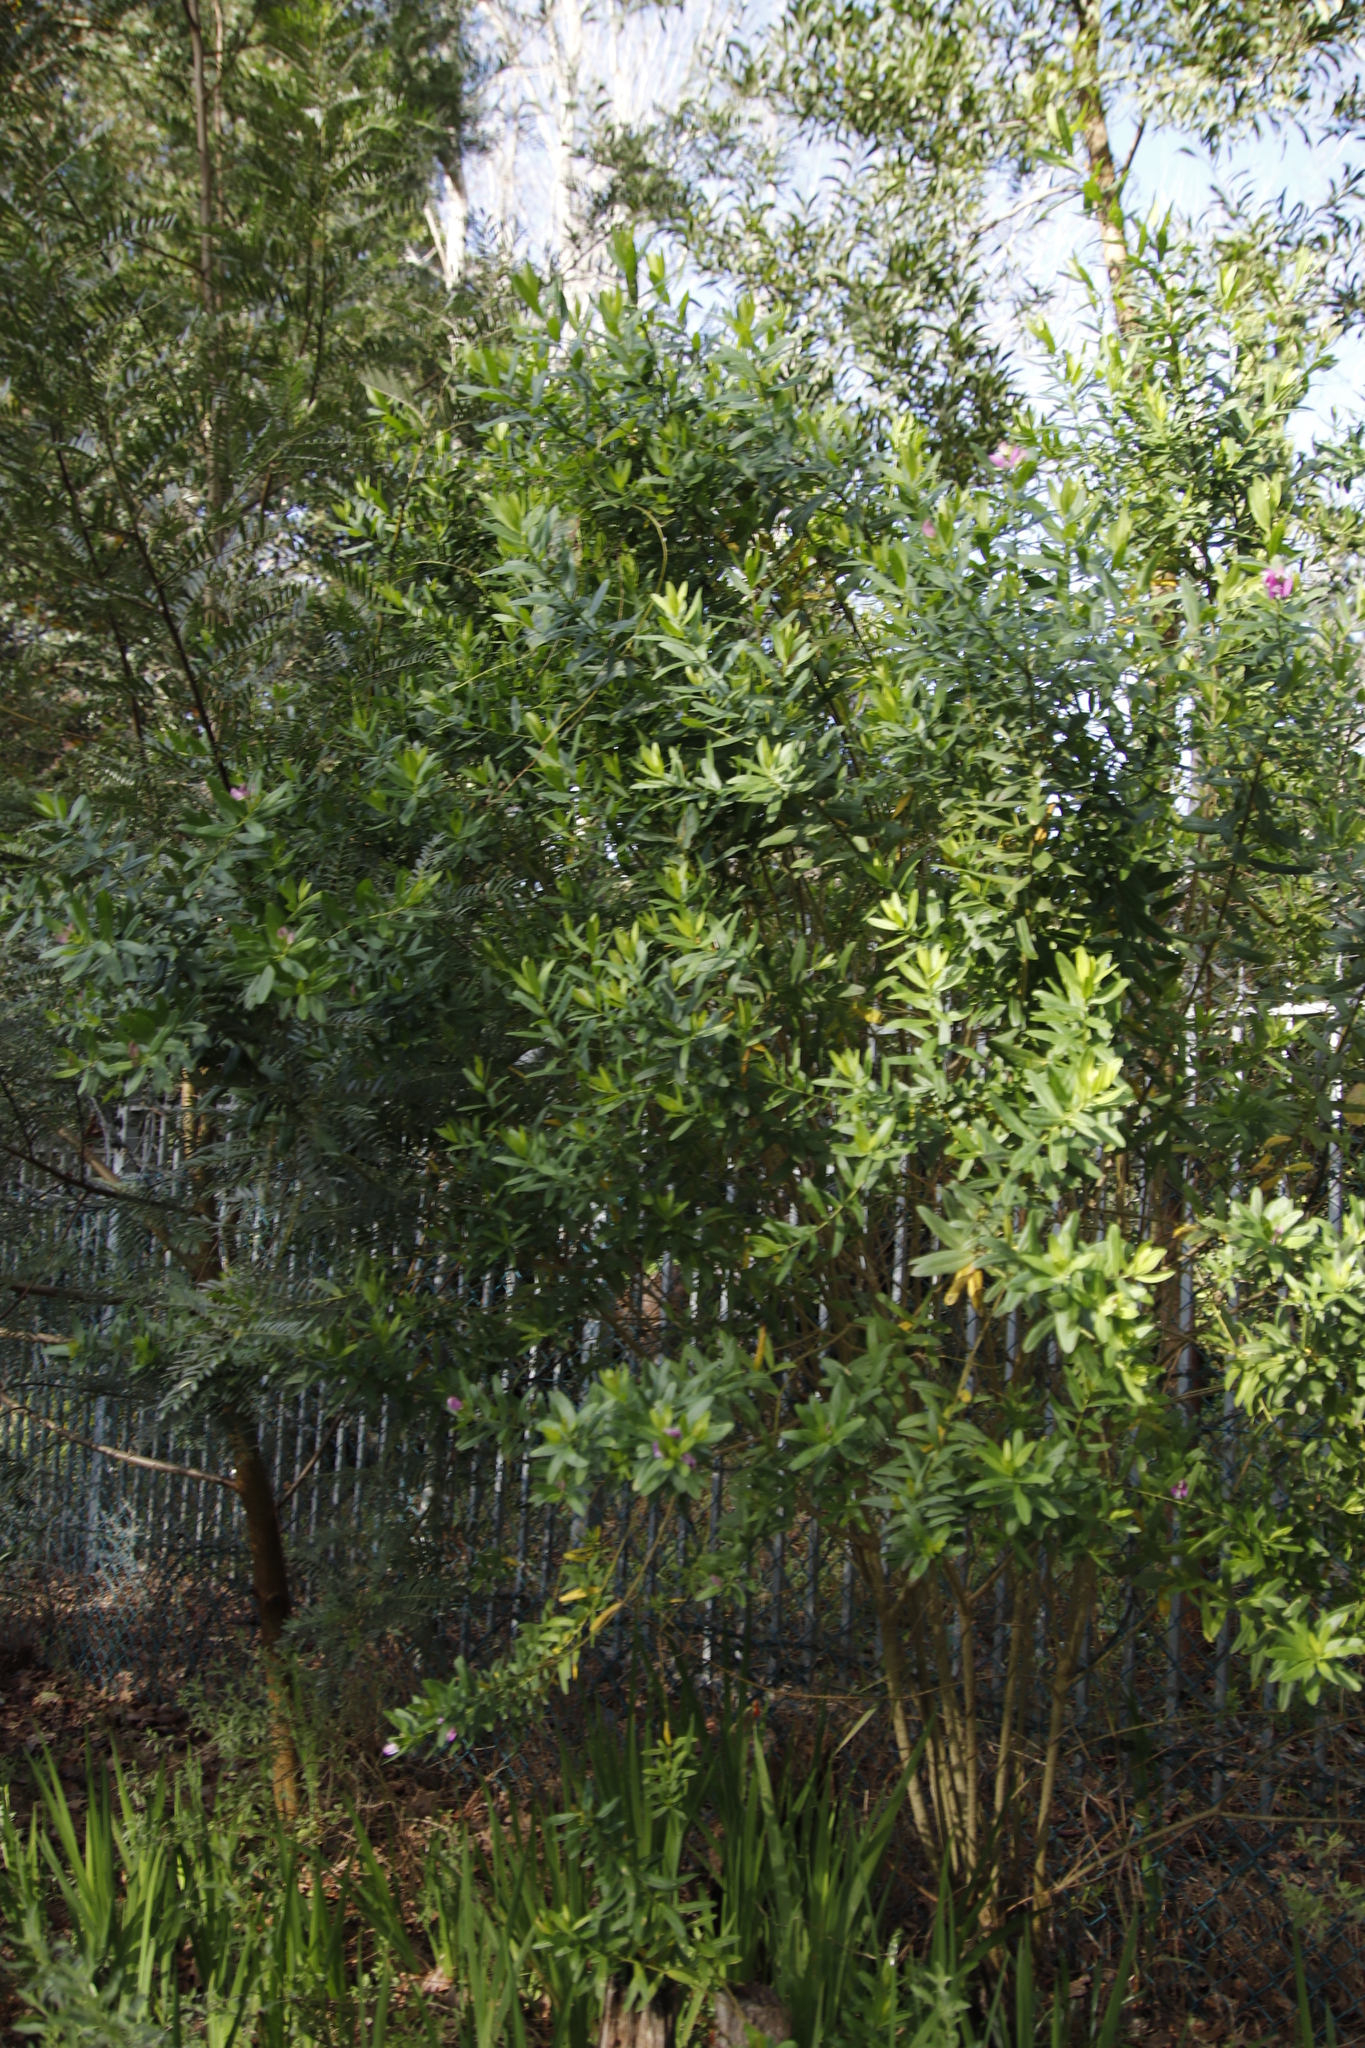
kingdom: Plantae
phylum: Tracheophyta
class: Magnoliopsida
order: Fabales
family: Polygalaceae
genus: Polygala
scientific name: Polygala myrtifolia
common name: Myrtle-leaf milkwort
